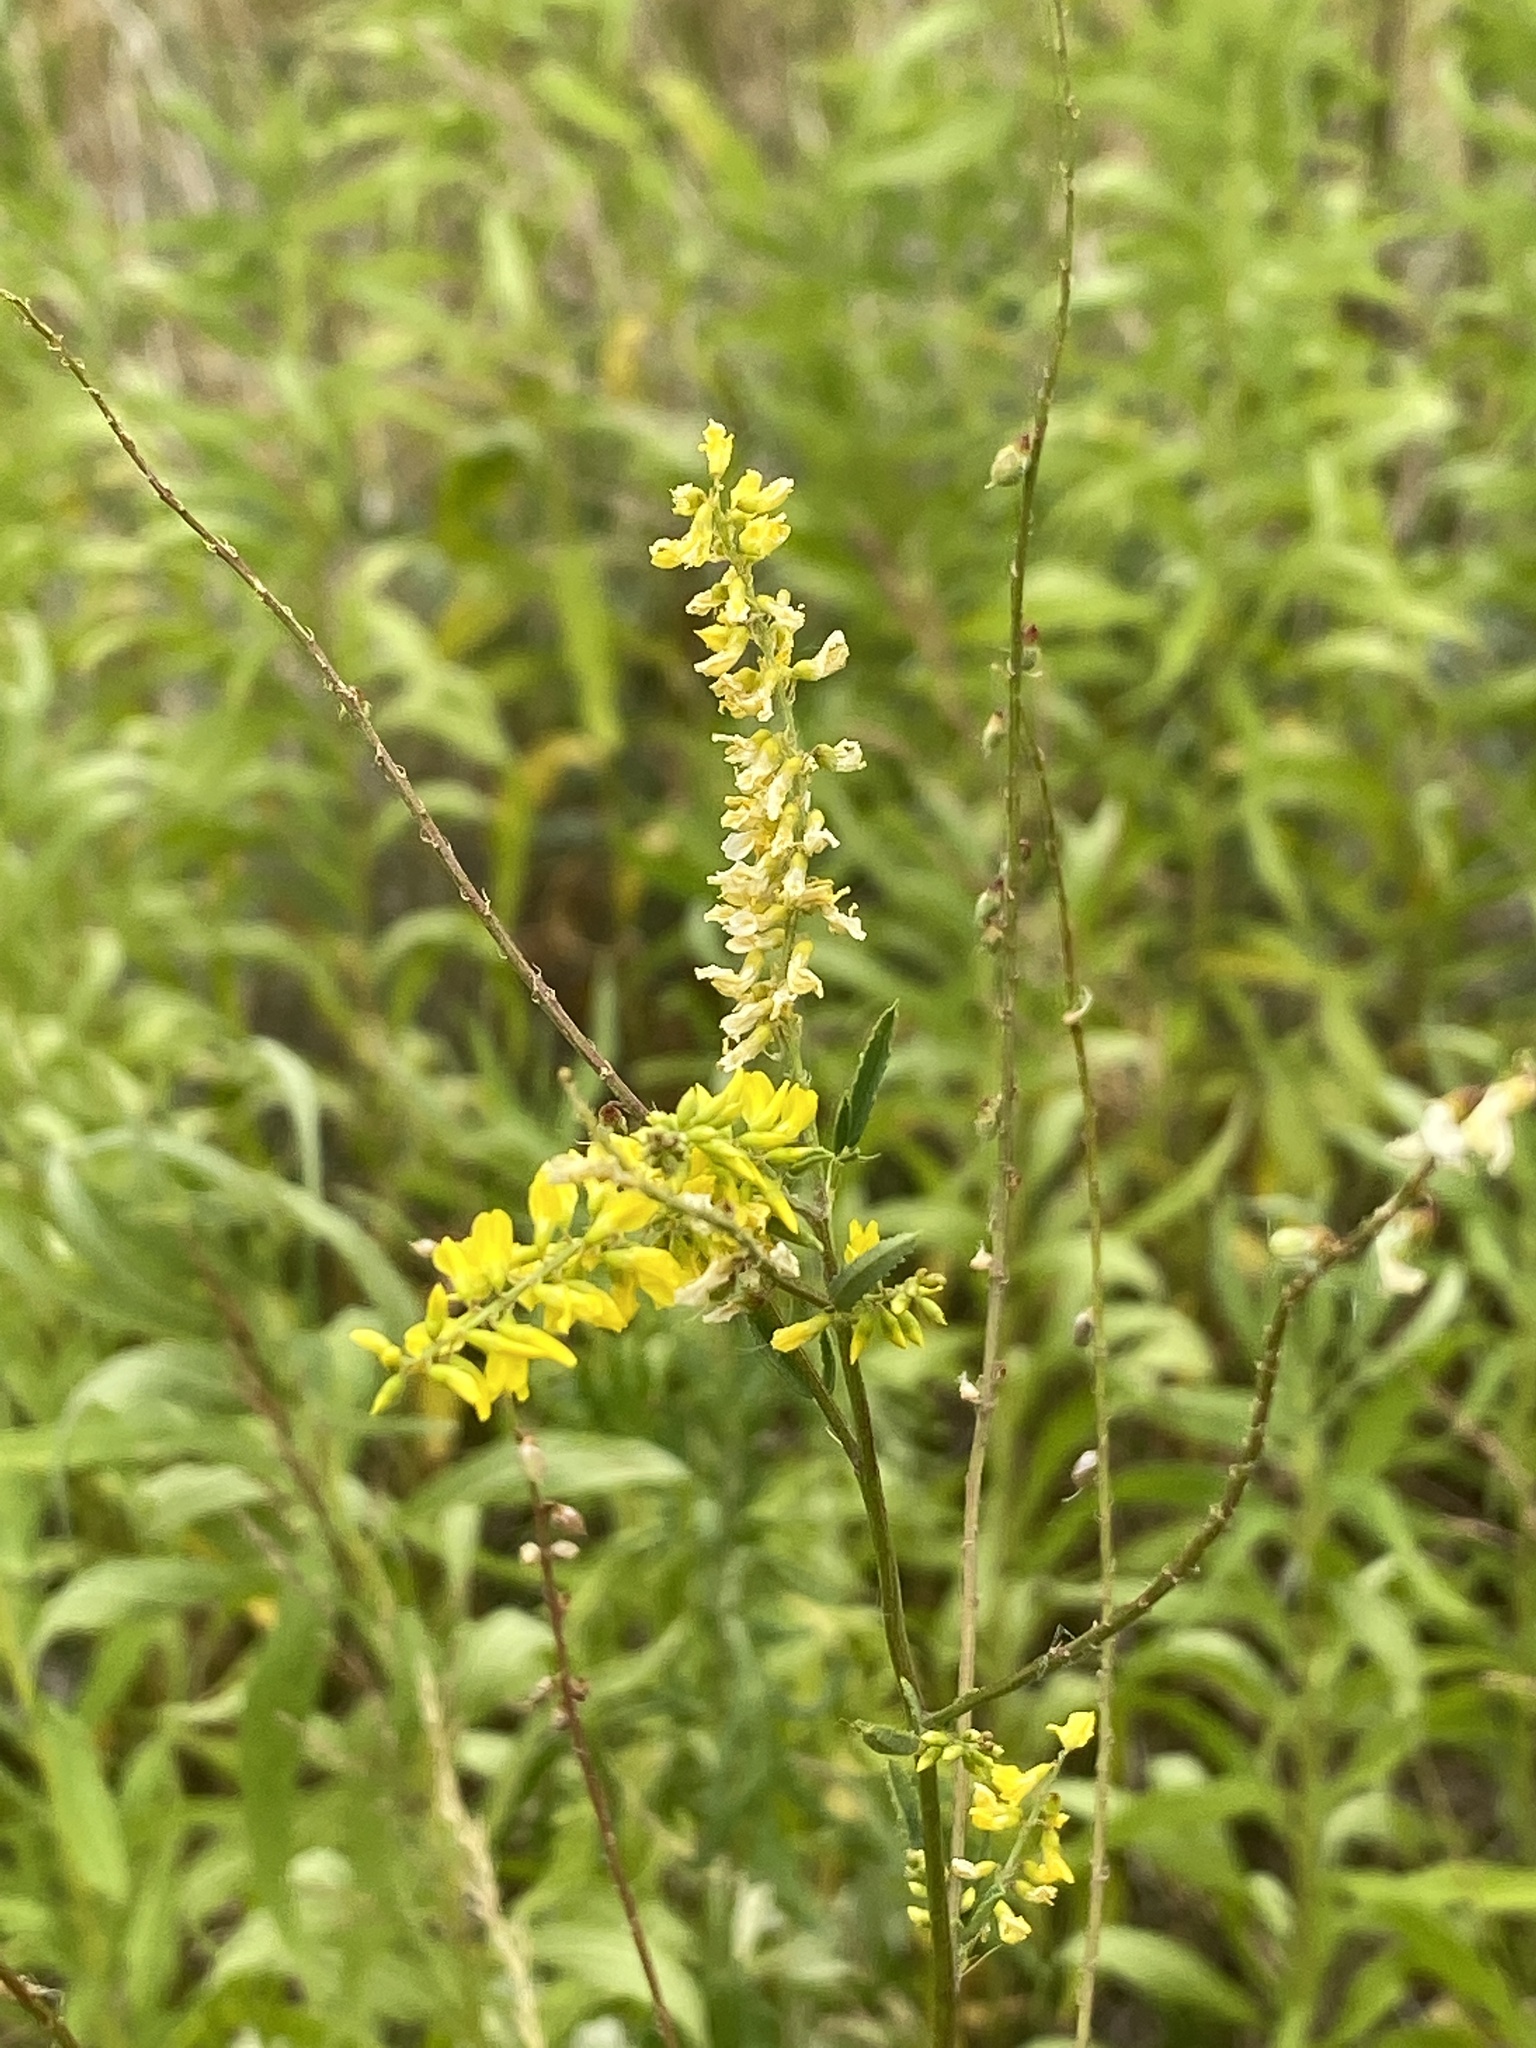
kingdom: Plantae
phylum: Tracheophyta
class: Magnoliopsida
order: Fabales
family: Fabaceae
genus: Melilotus
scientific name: Melilotus officinalis
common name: Sweetclover
